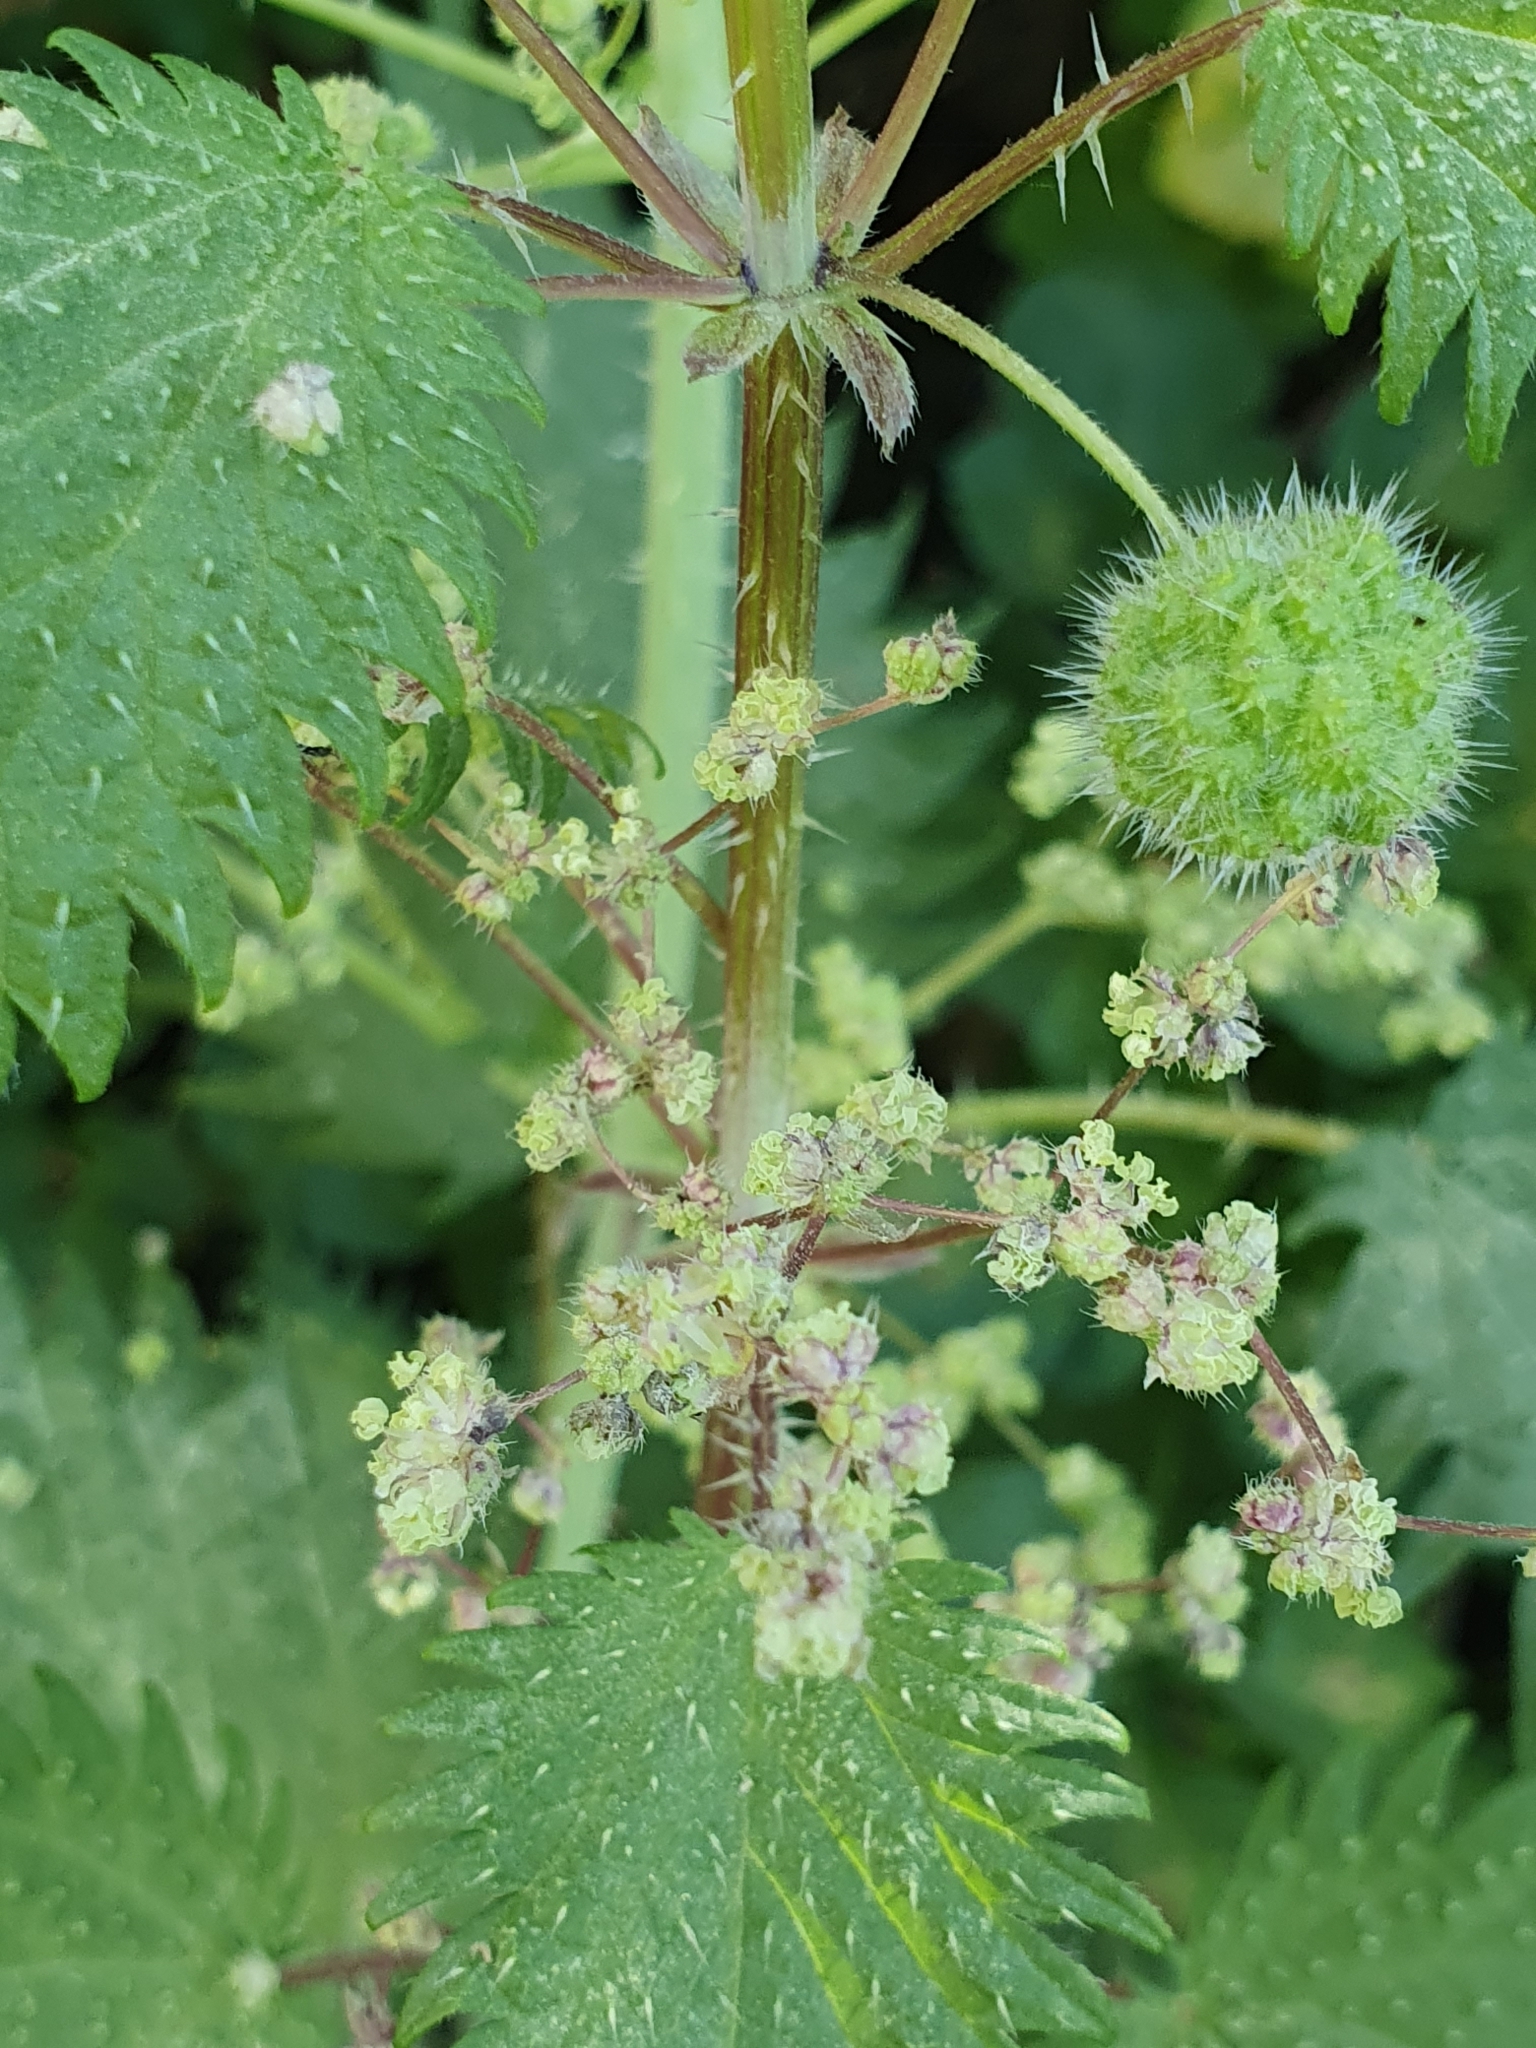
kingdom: Plantae
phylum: Tracheophyta
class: Magnoliopsida
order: Rosales
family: Urticaceae
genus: Urtica
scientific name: Urtica pilulifera
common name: Roman nettle
